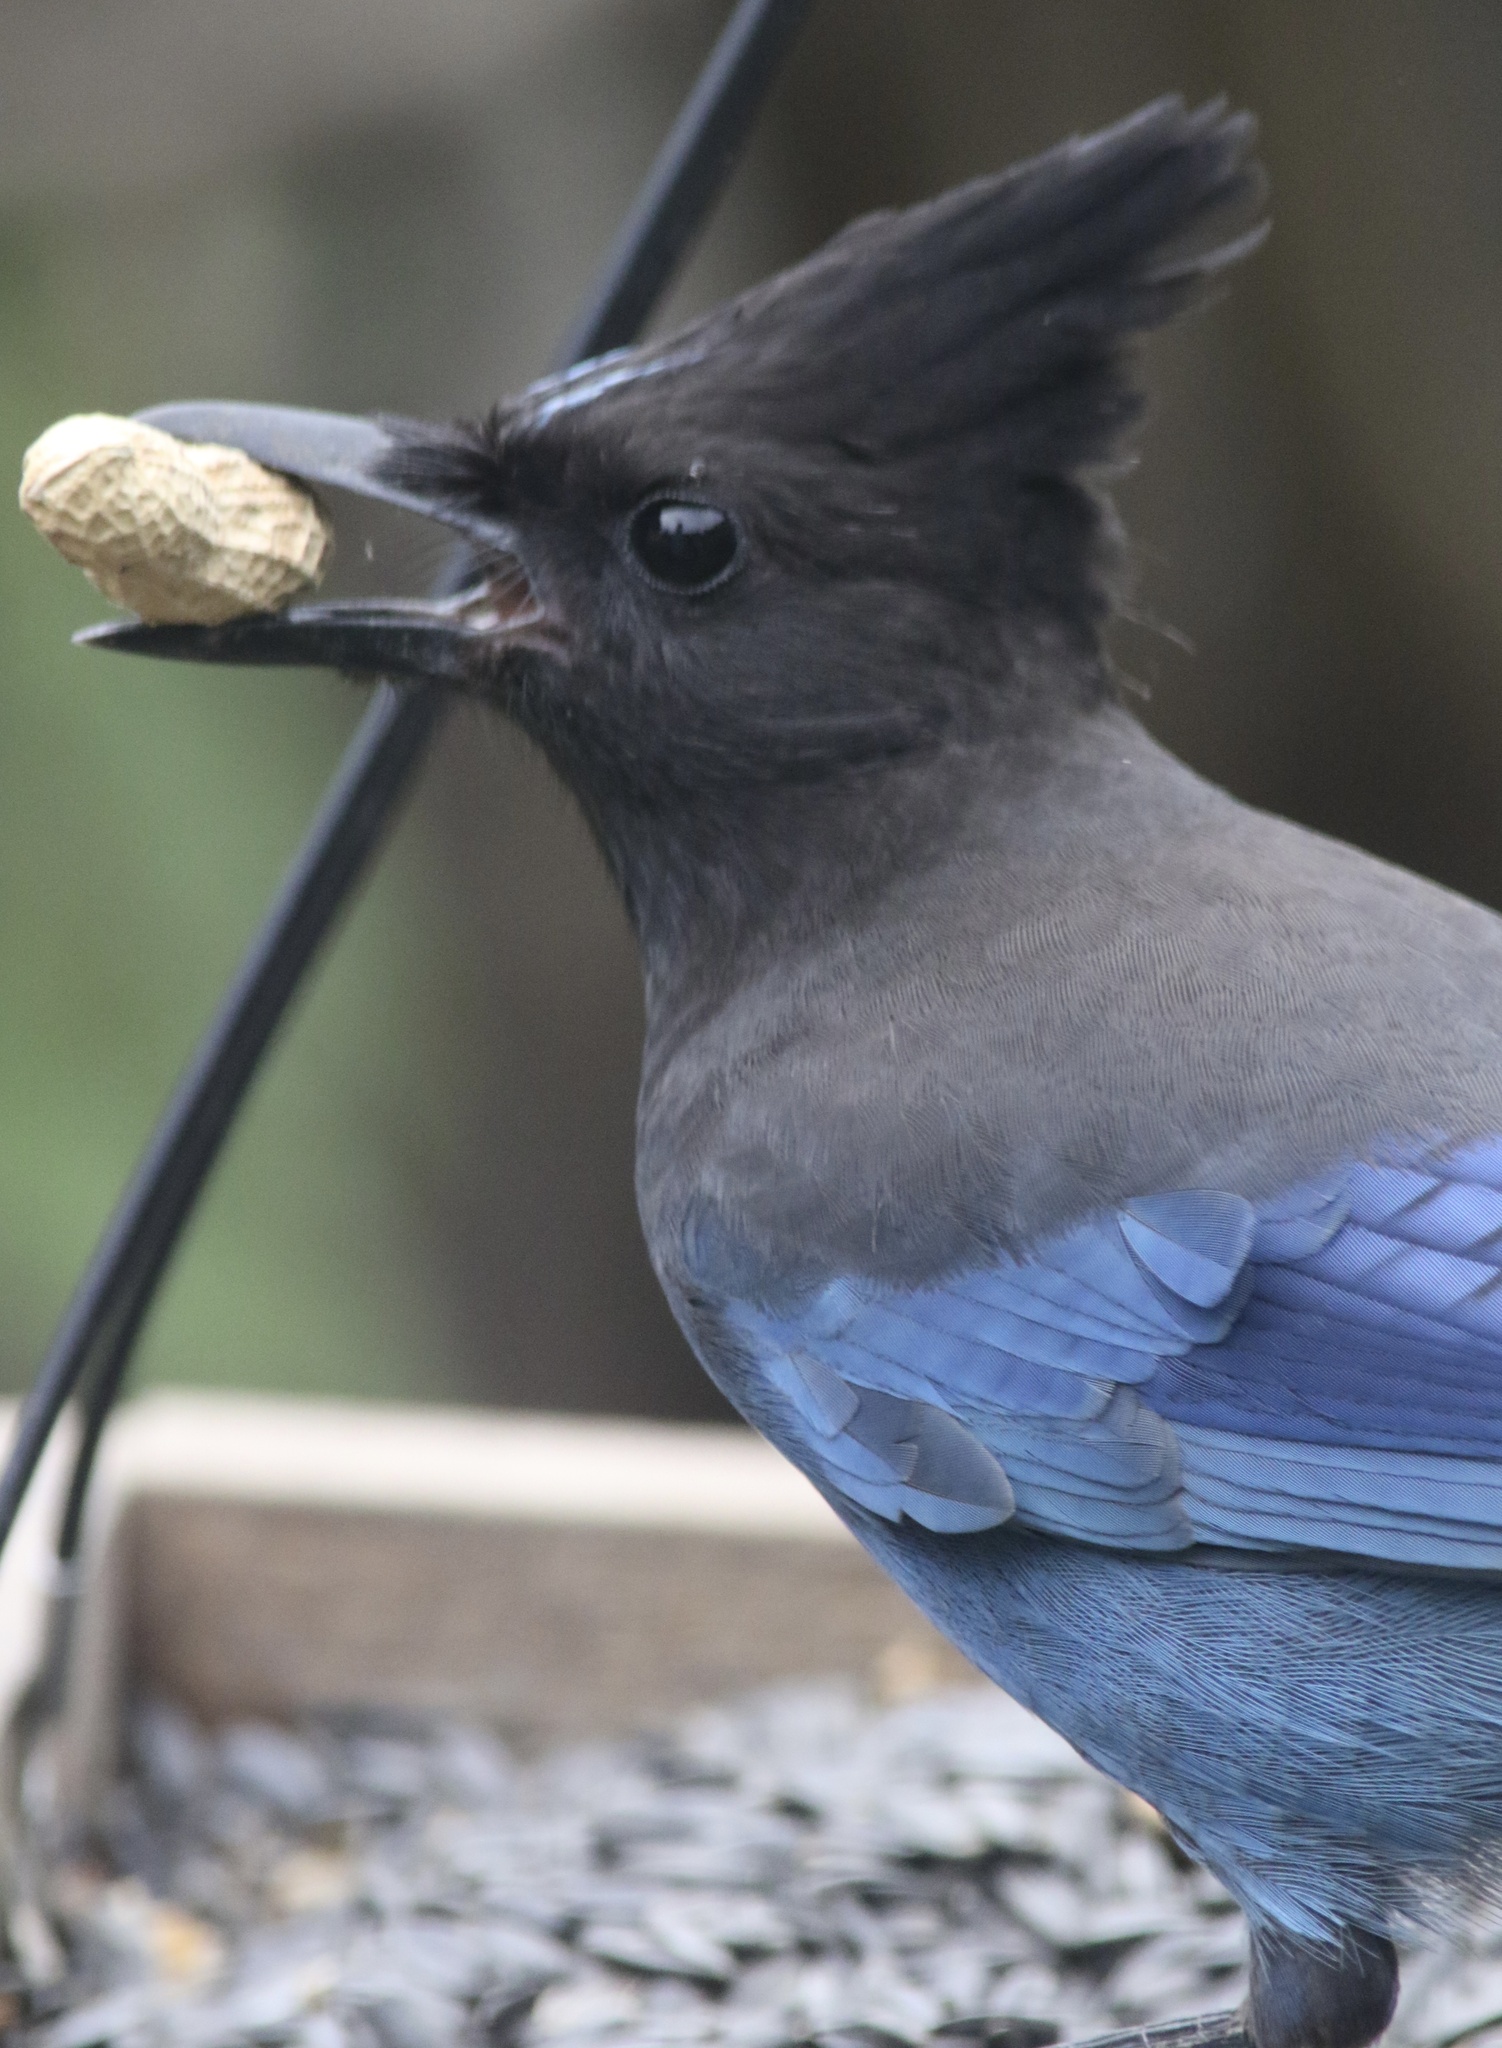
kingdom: Animalia
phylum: Chordata
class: Aves
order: Passeriformes
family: Corvidae
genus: Cyanocitta
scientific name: Cyanocitta stelleri
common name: Steller's jay
